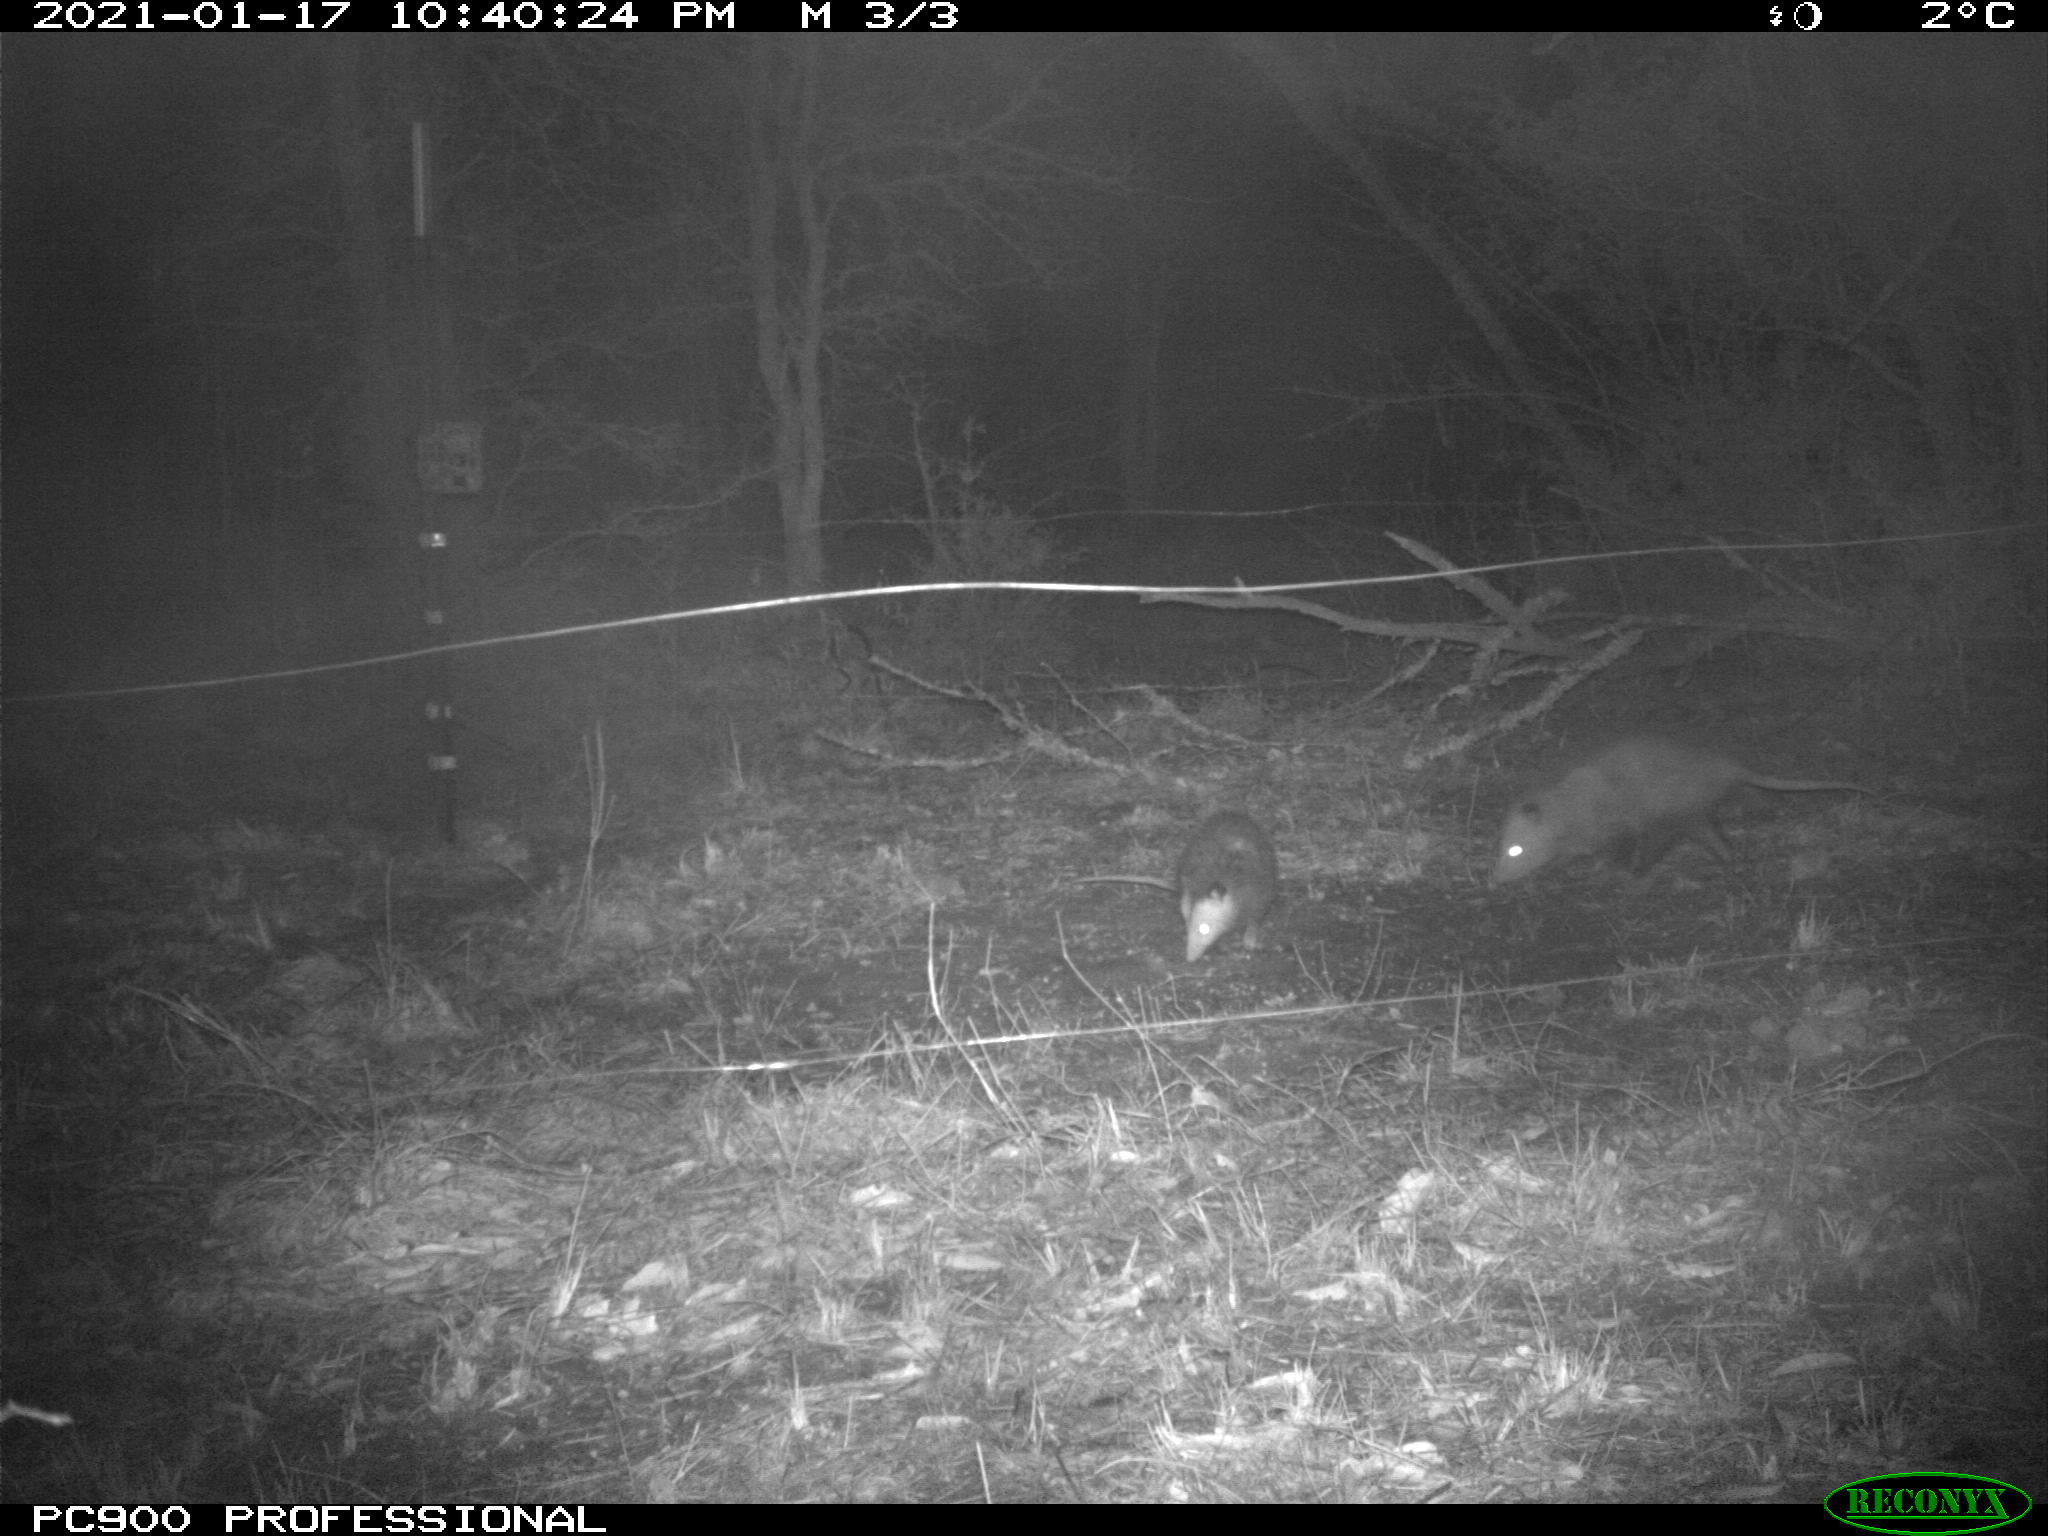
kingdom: Animalia
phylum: Chordata
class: Mammalia
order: Didelphimorphia
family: Didelphidae
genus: Didelphis
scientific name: Didelphis virginiana
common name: Virginia opossum
